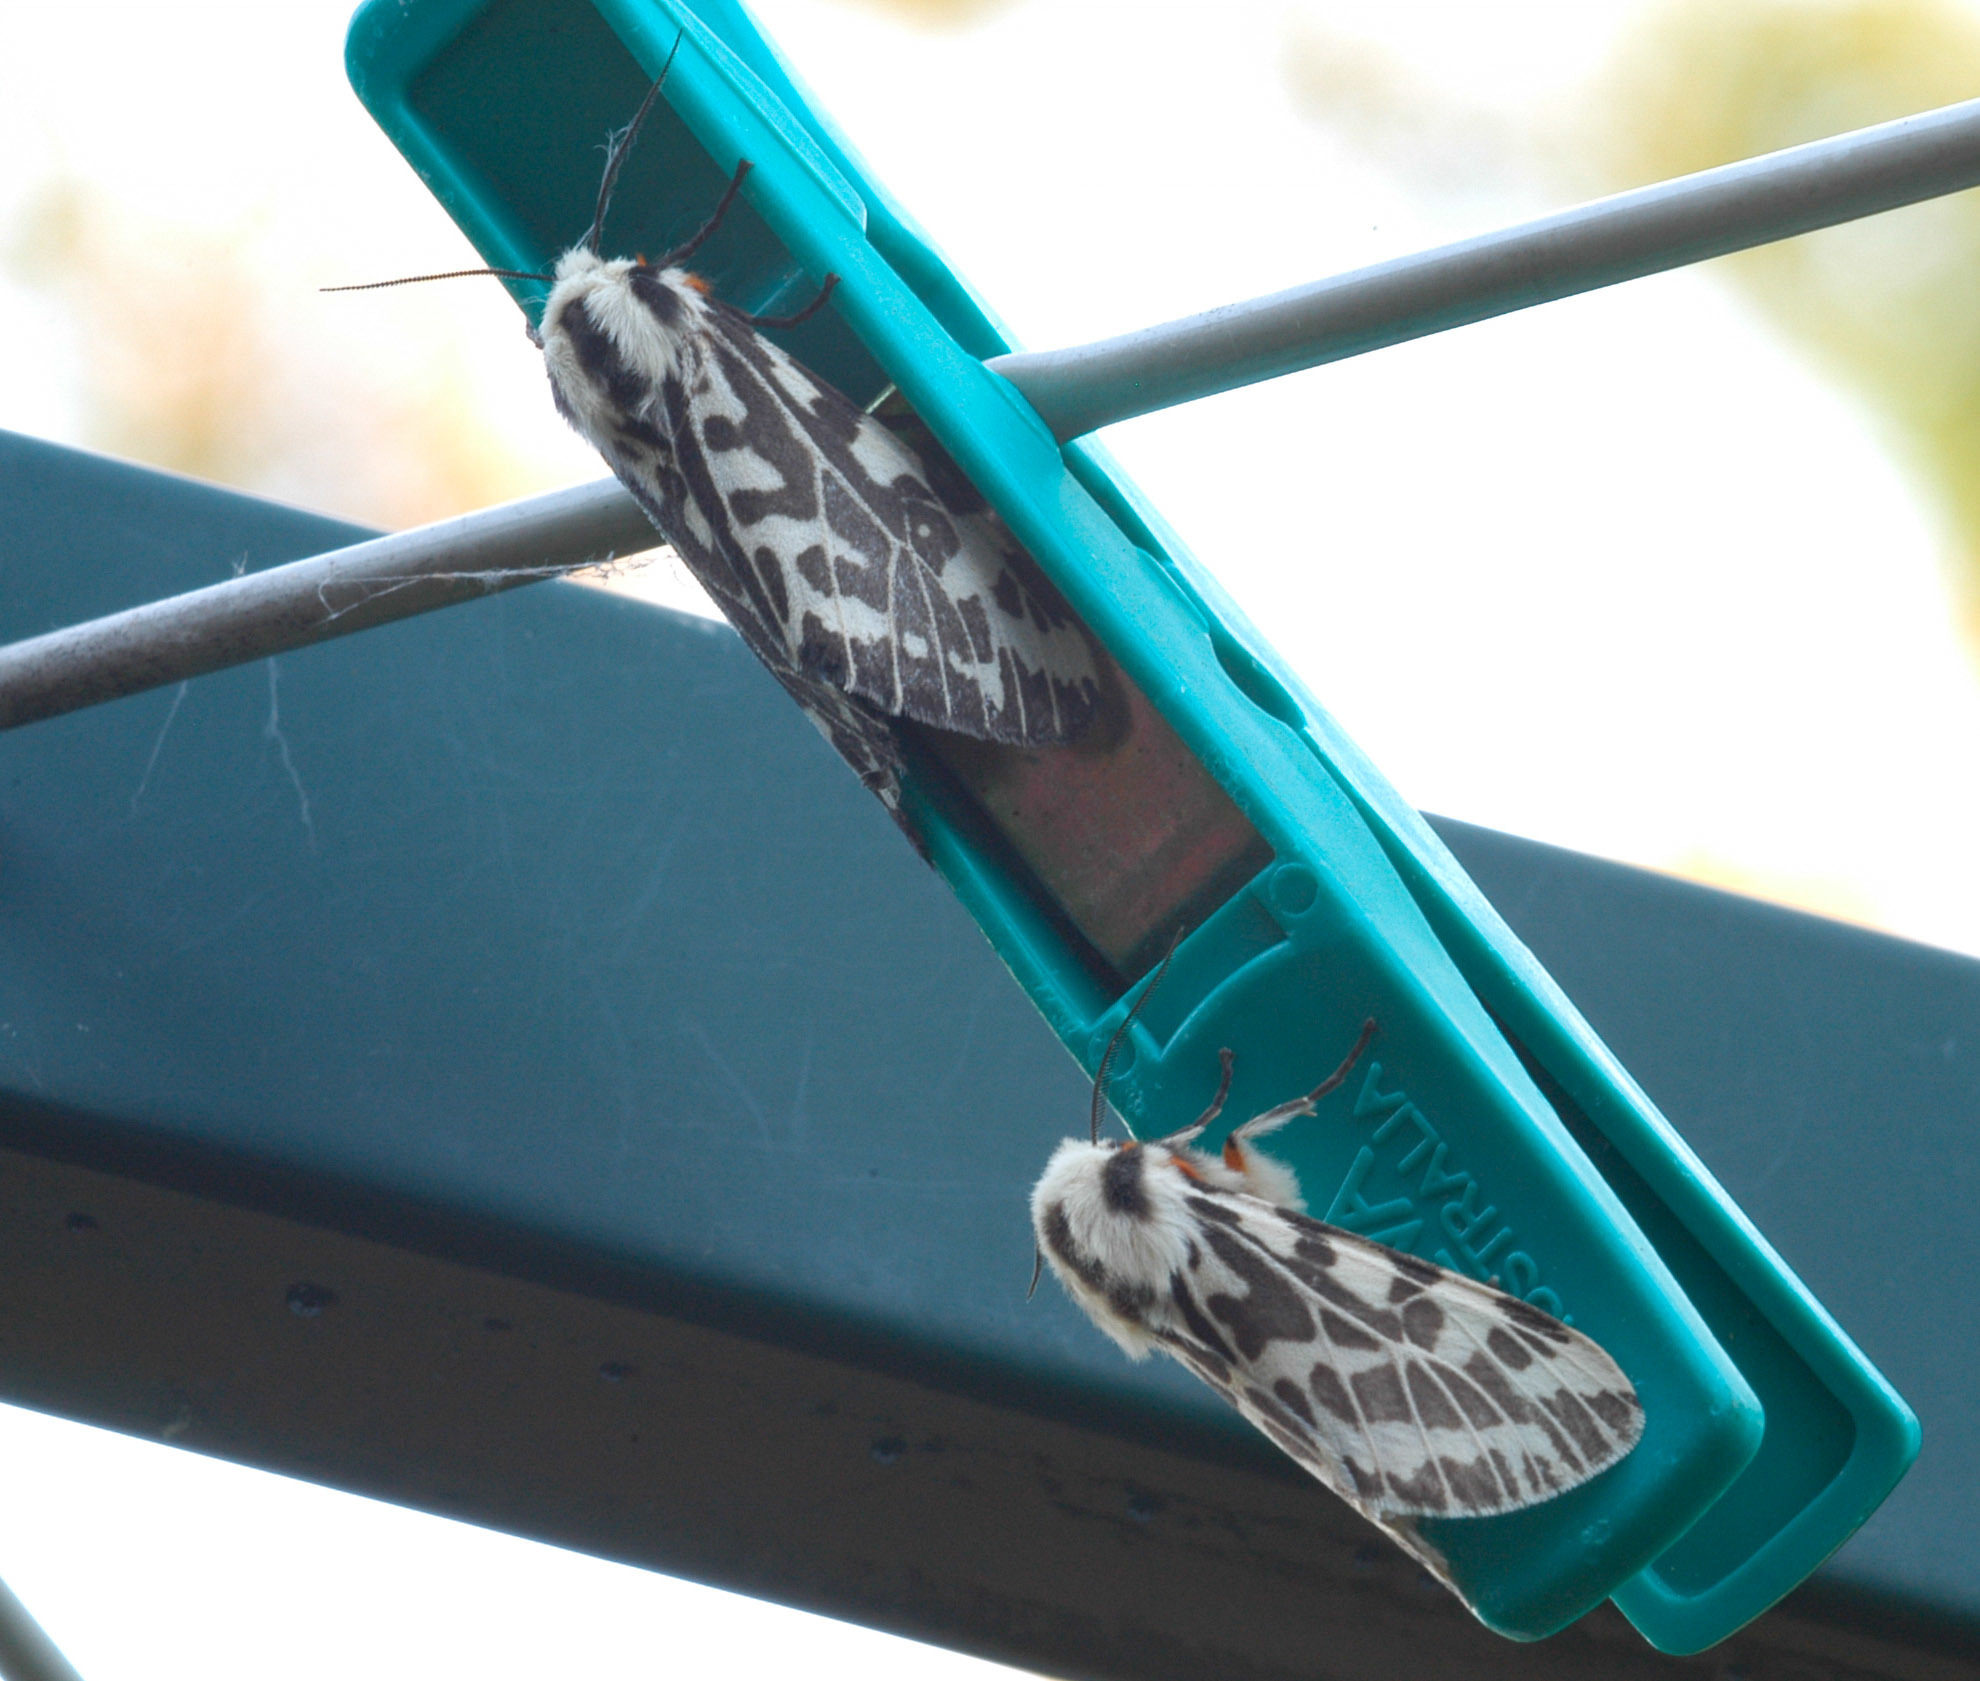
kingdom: Animalia
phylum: Arthropoda
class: Insecta
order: Lepidoptera
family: Erebidae
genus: Ardices
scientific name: Ardices glatignyi
